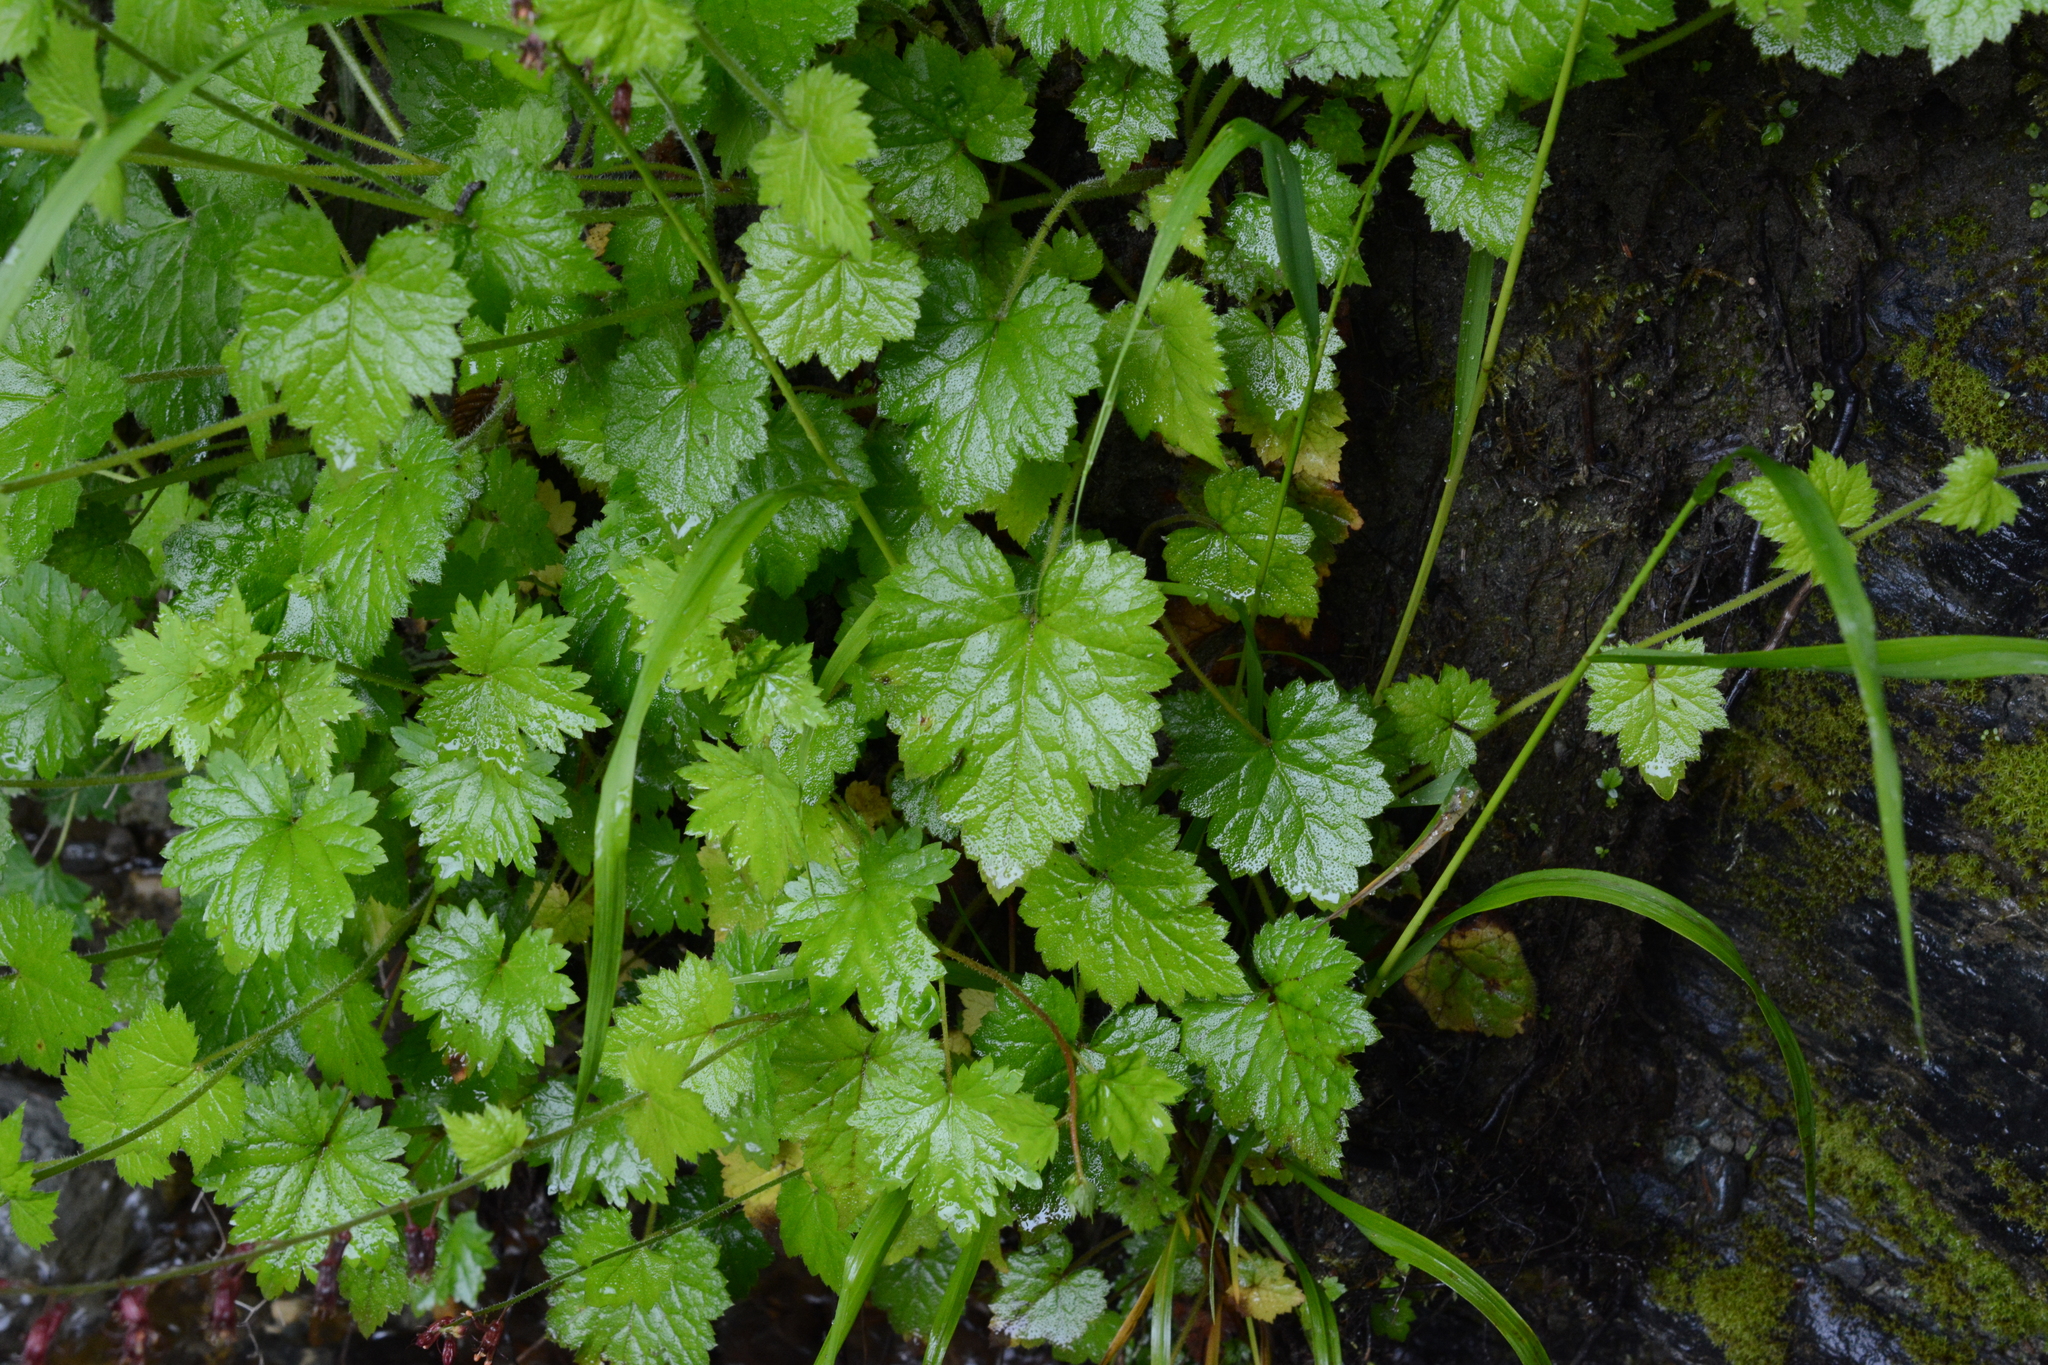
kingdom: Plantae
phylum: Tracheophyta
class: Magnoliopsida
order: Saxifragales
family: Saxifragaceae
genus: Tolmiea
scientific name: Tolmiea menziesii
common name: Pick-a-back-plant
